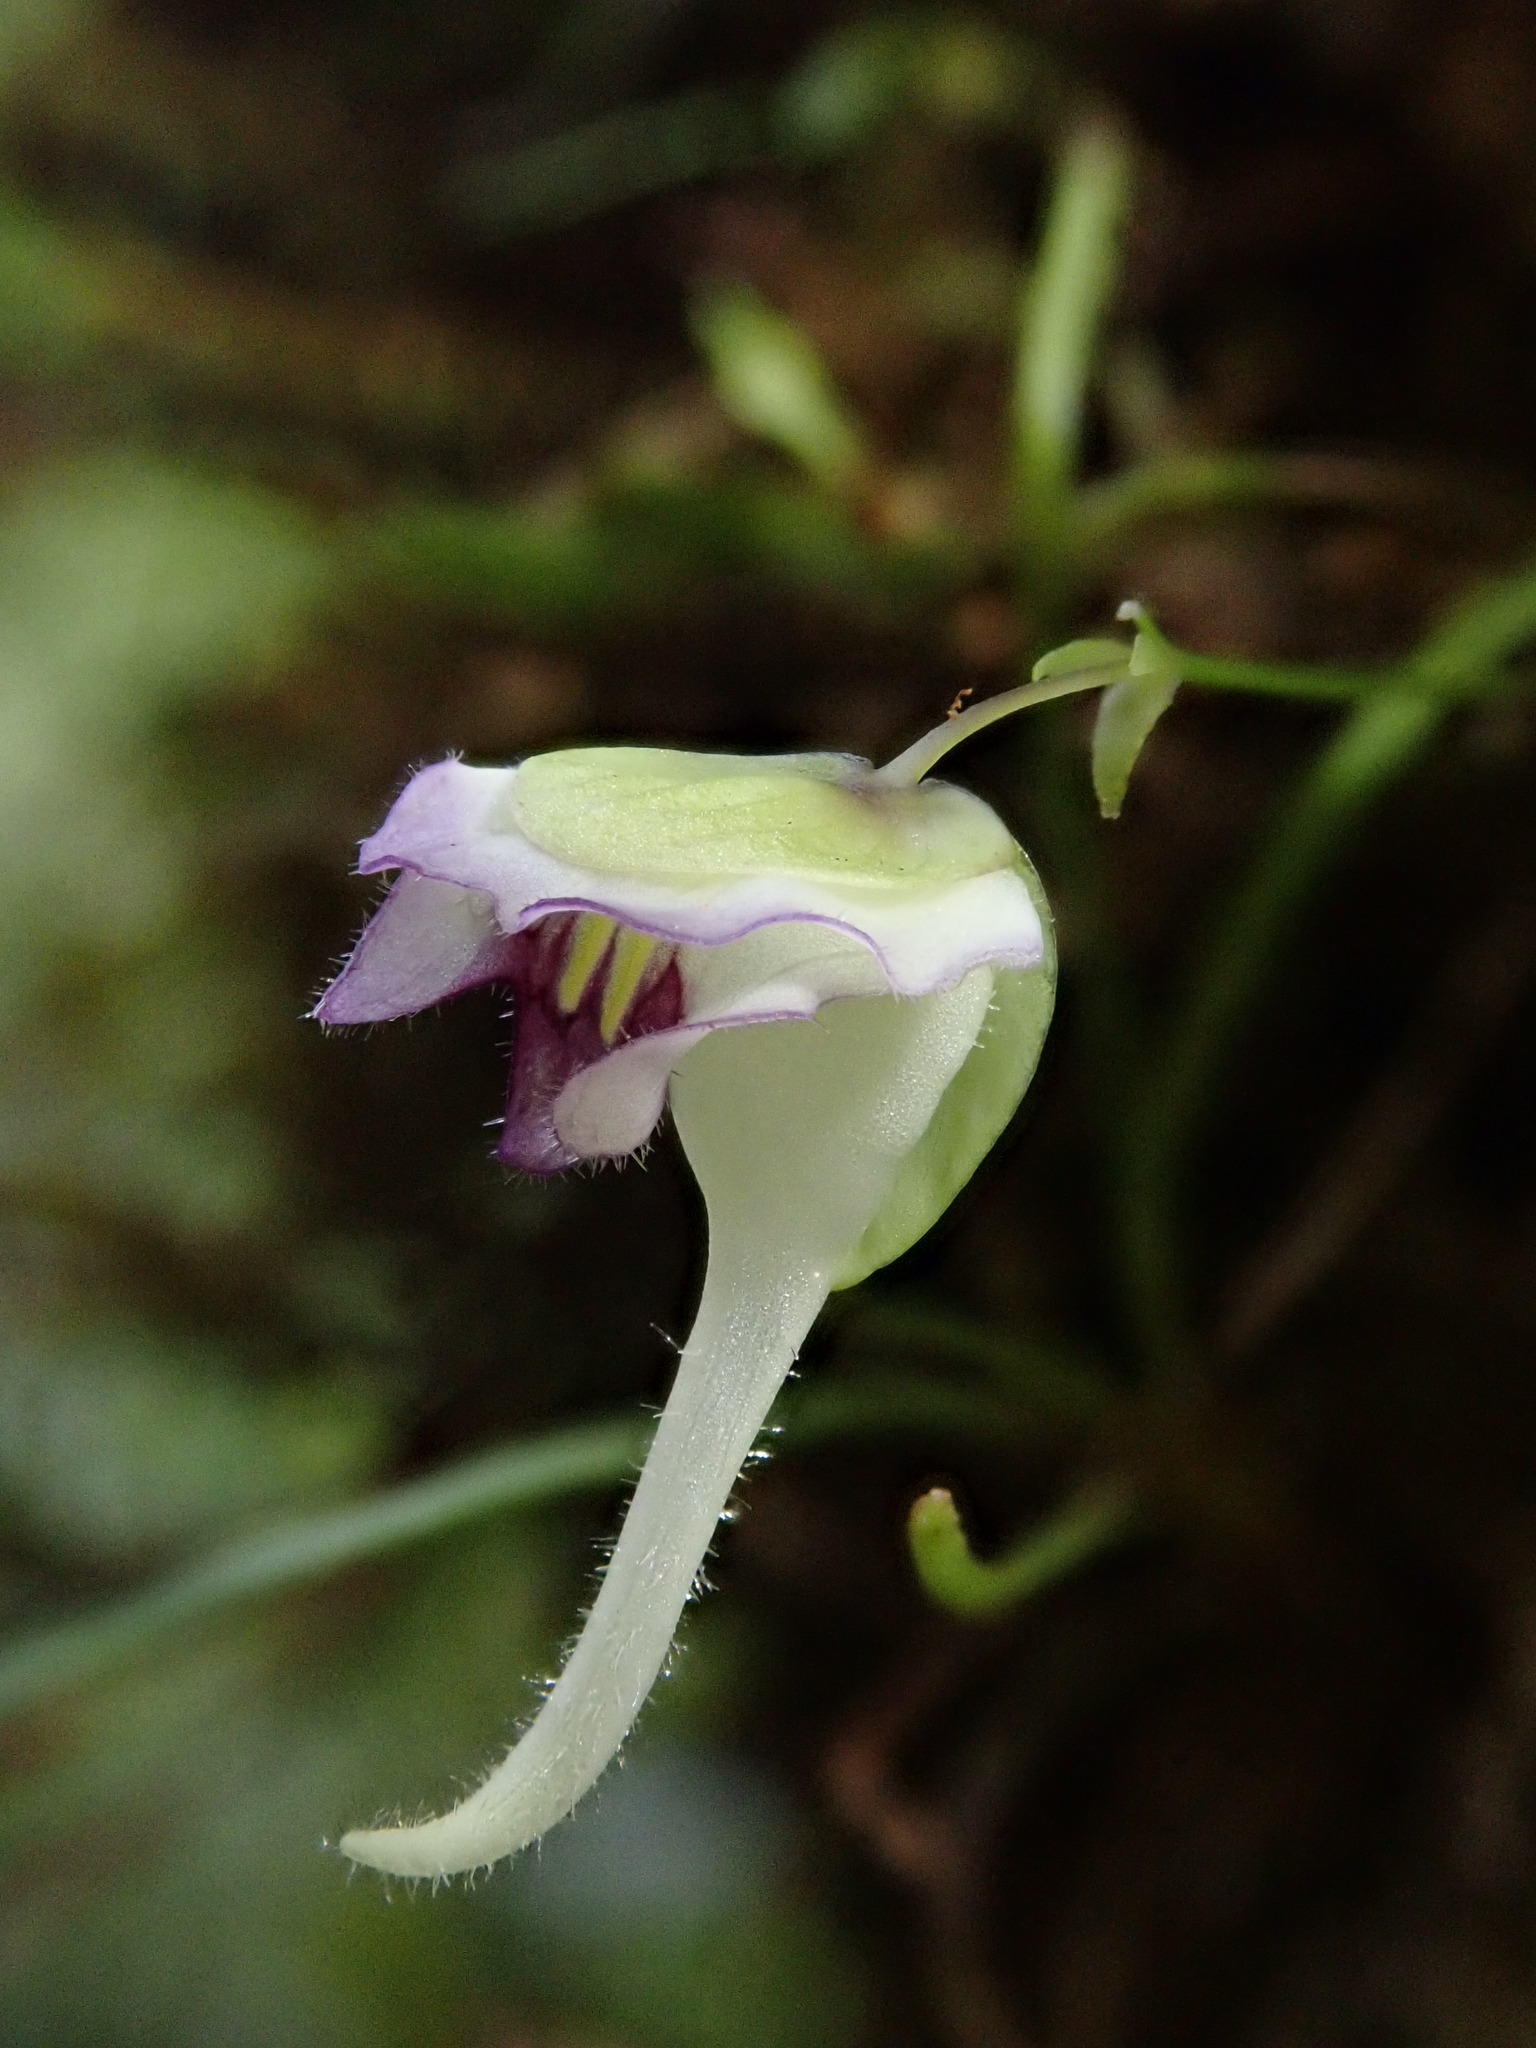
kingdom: Plantae
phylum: Tracheophyta
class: Magnoliopsida
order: Lamiales
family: Lentibulariaceae
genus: Utricularia
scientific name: Utricularia jamesoniana
